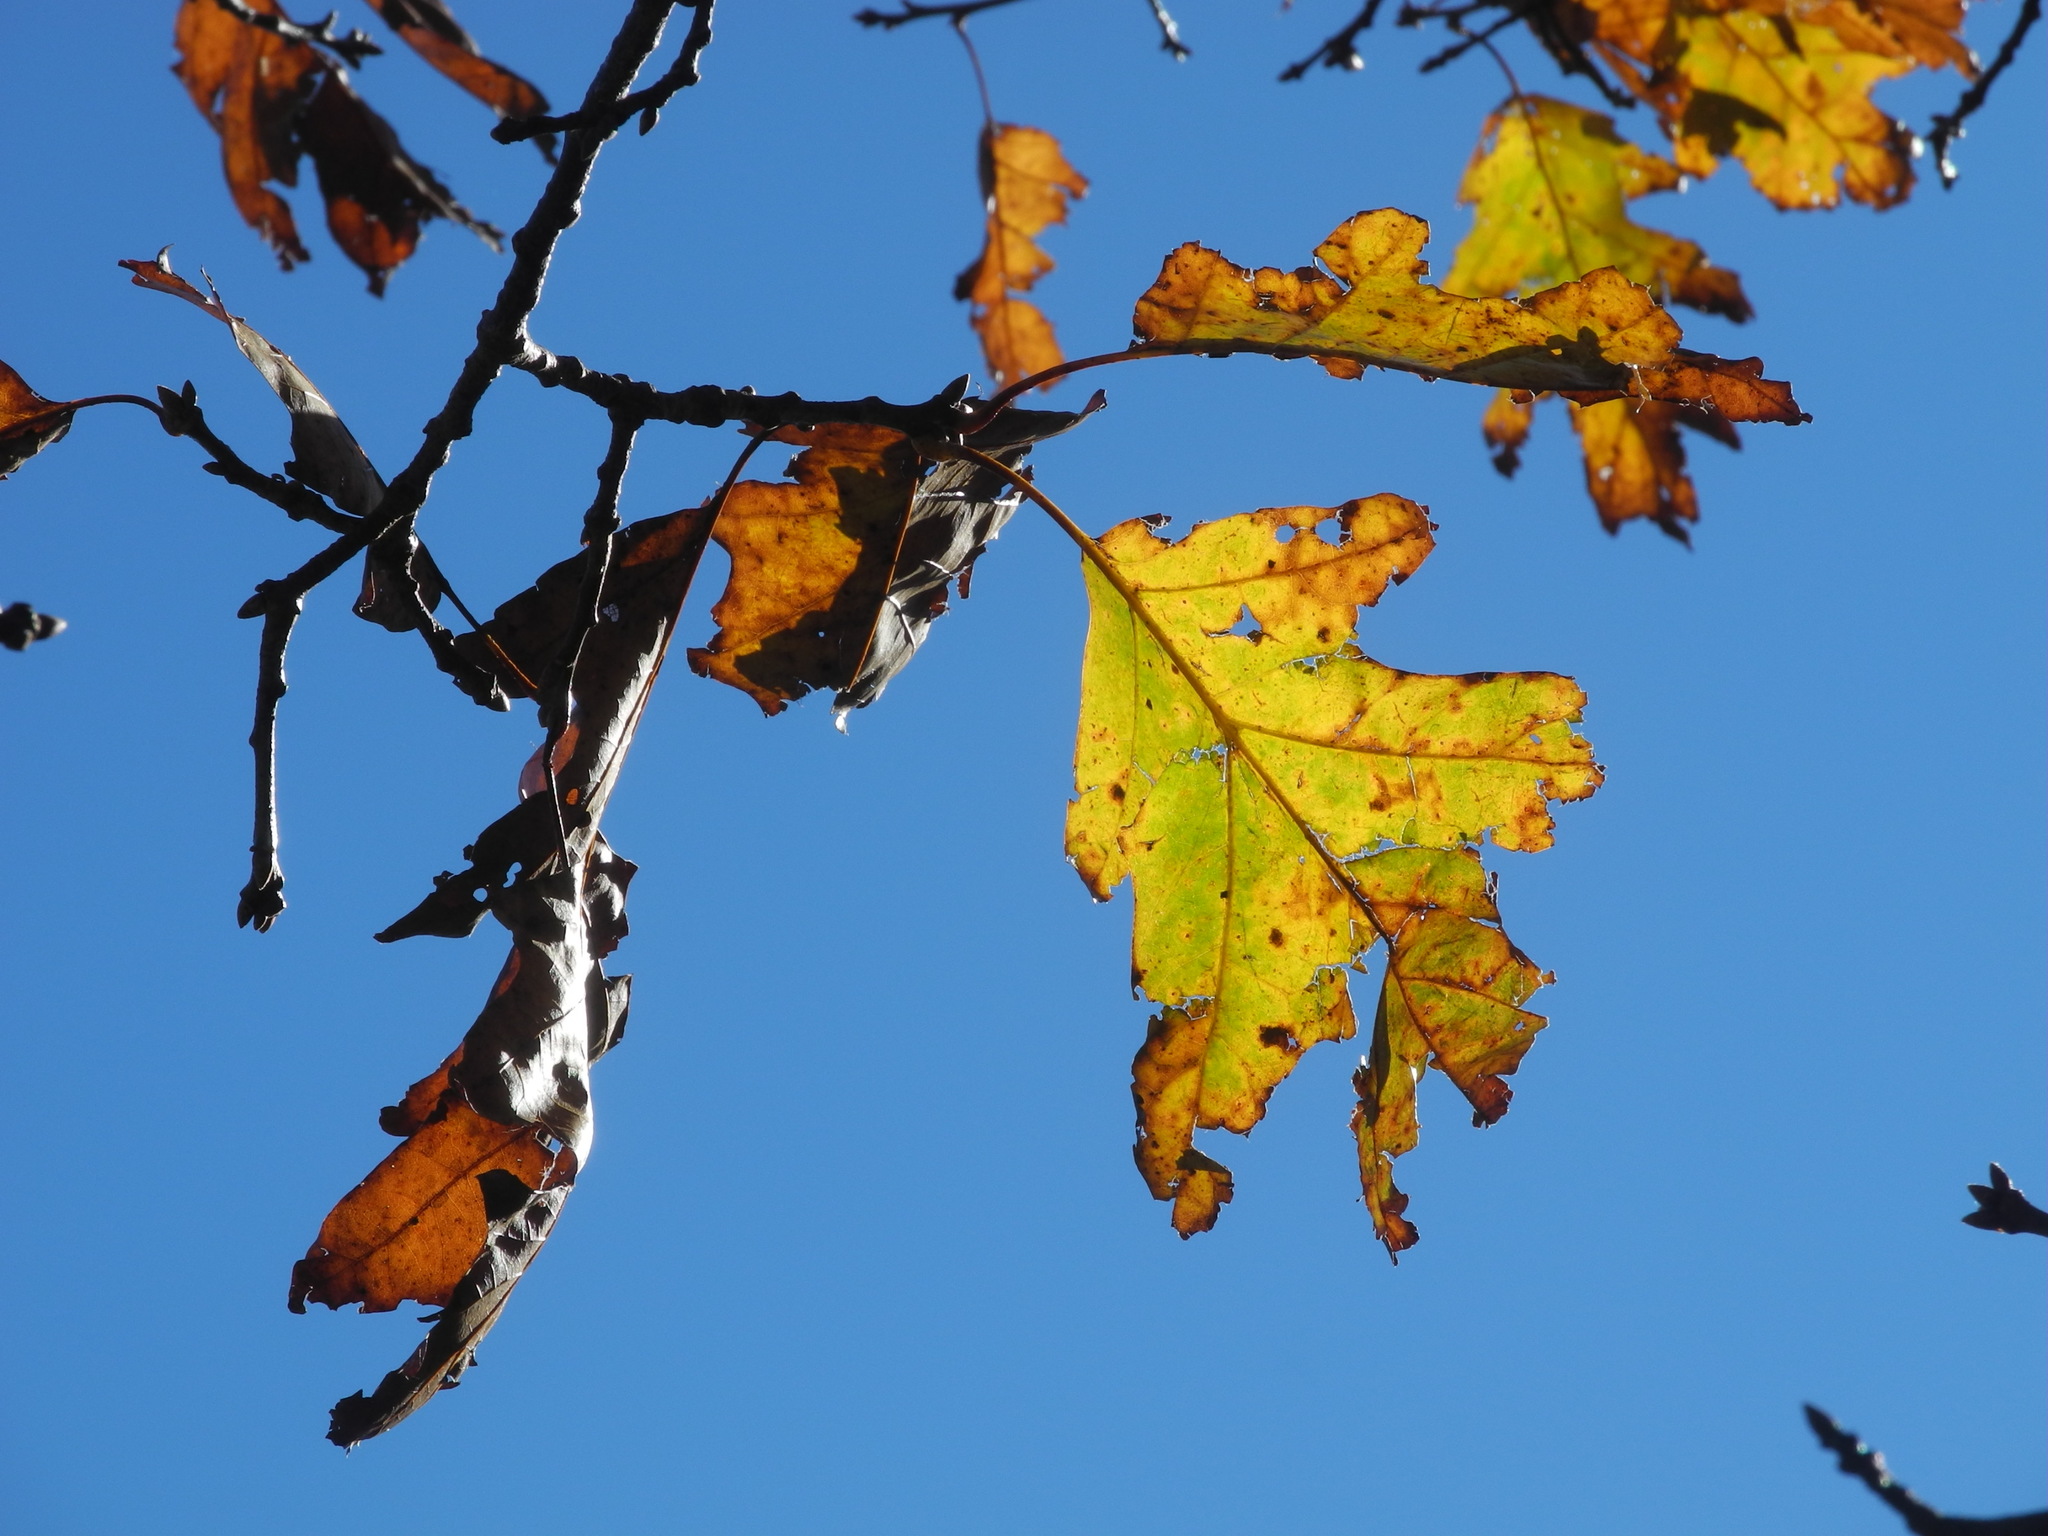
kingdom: Plantae
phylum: Tracheophyta
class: Magnoliopsida
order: Fagales
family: Fagaceae
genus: Quercus
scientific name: Quercus rubra
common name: Red oak
